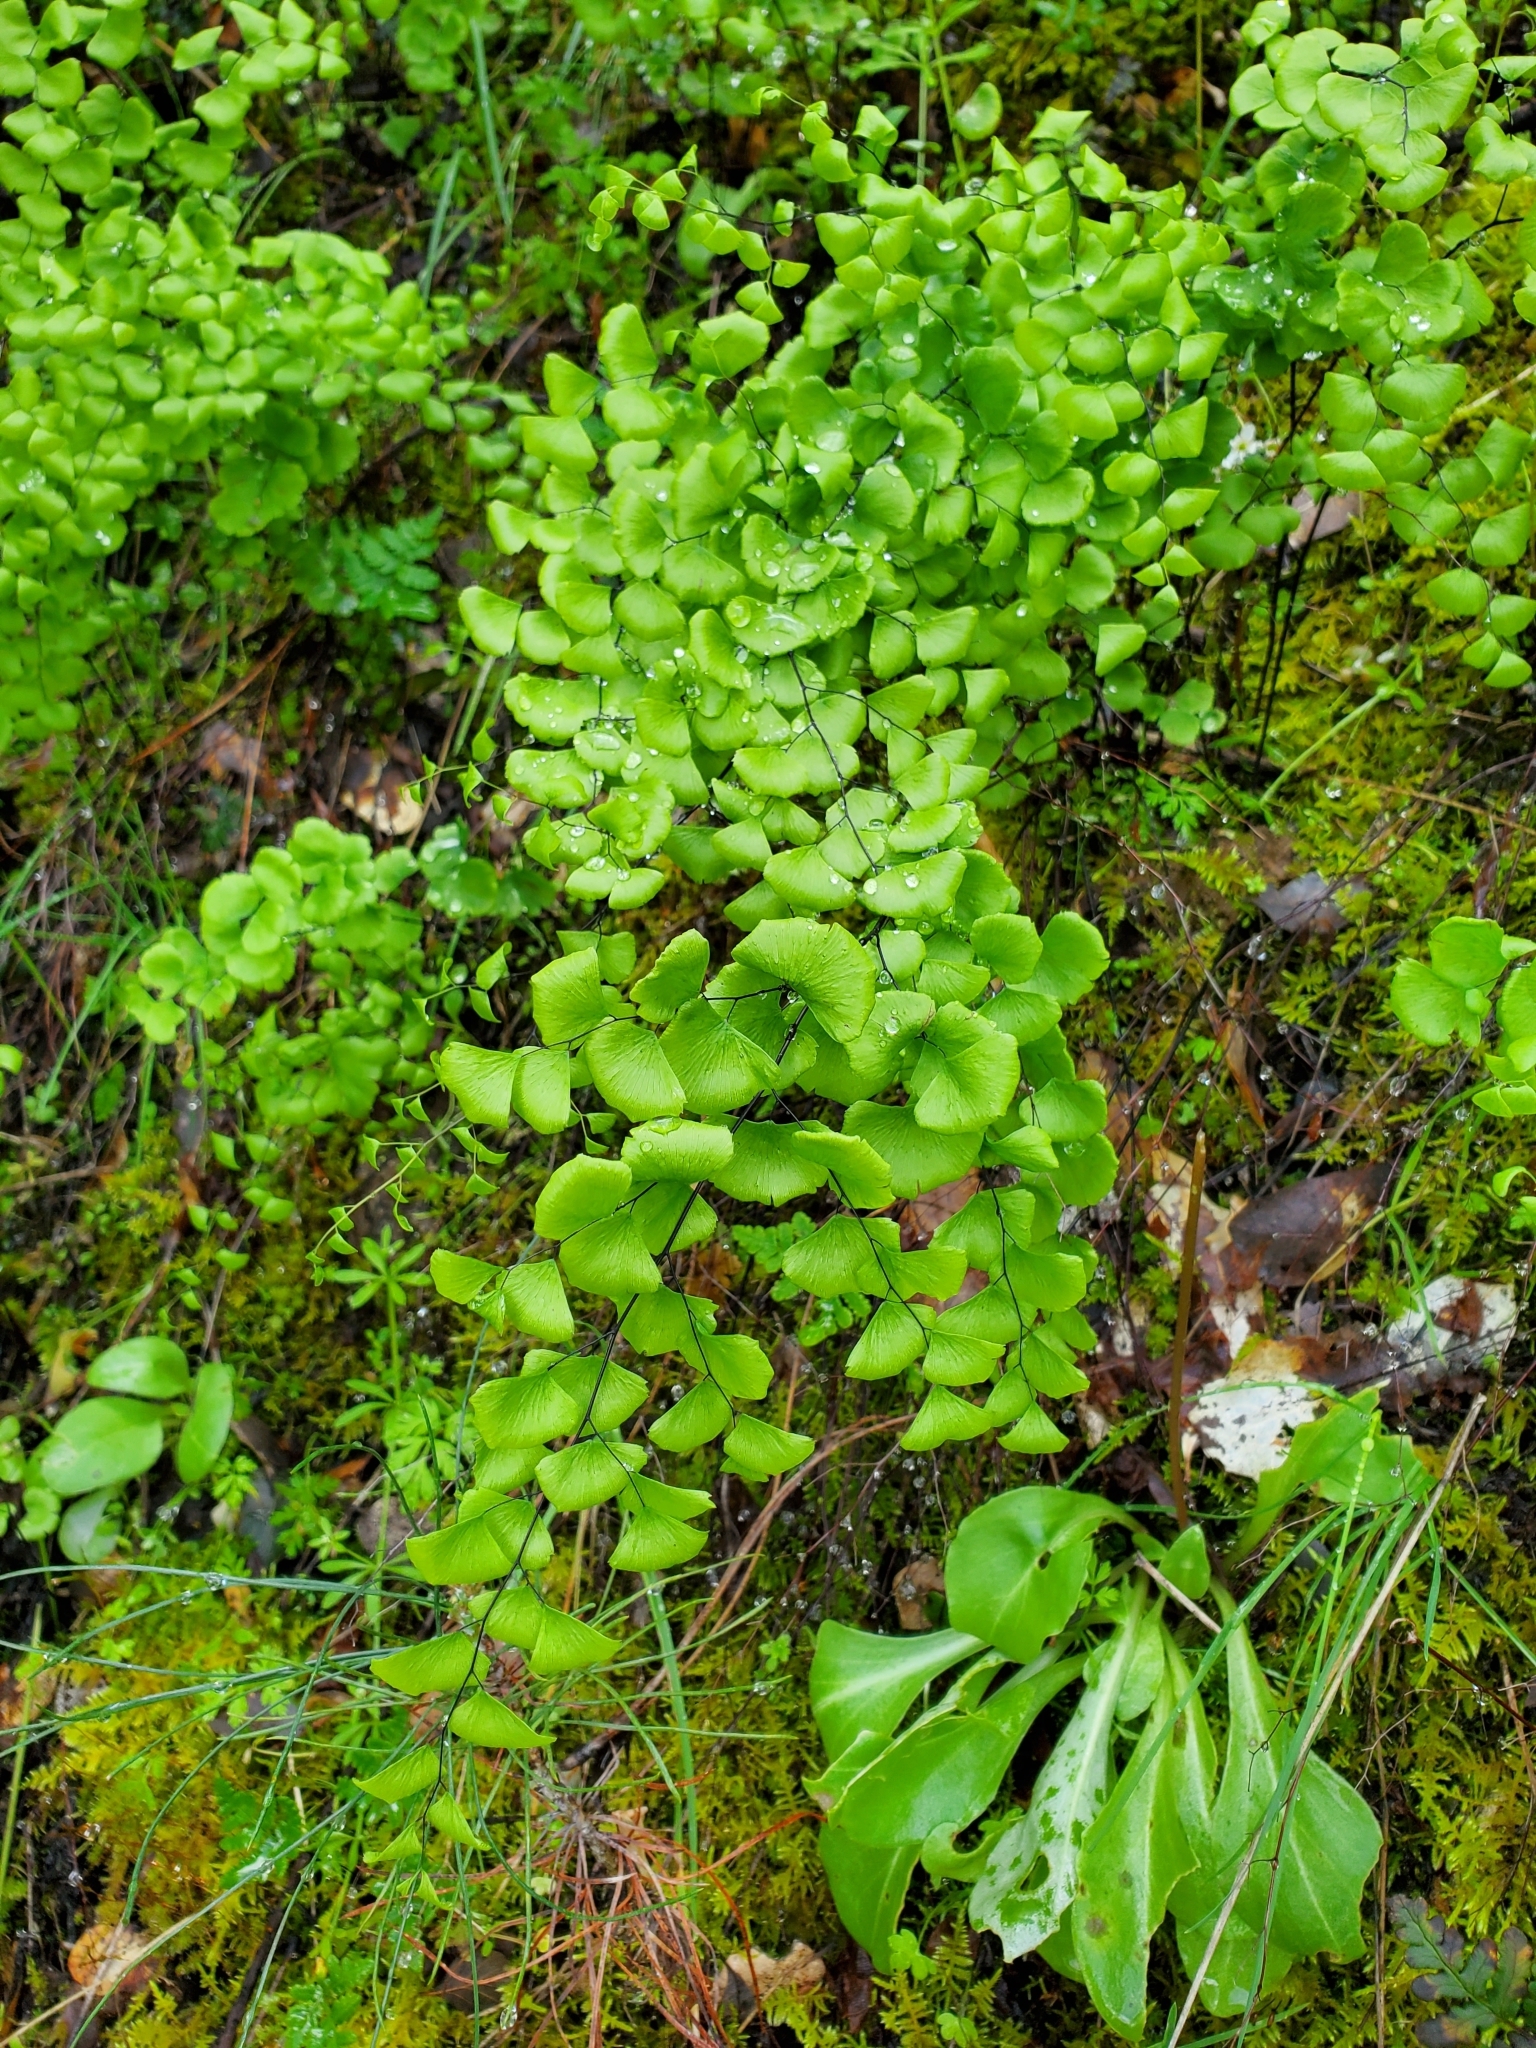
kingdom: Plantae
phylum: Tracheophyta
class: Polypodiopsida
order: Polypodiales
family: Pteridaceae
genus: Adiantum
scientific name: Adiantum jordanii
